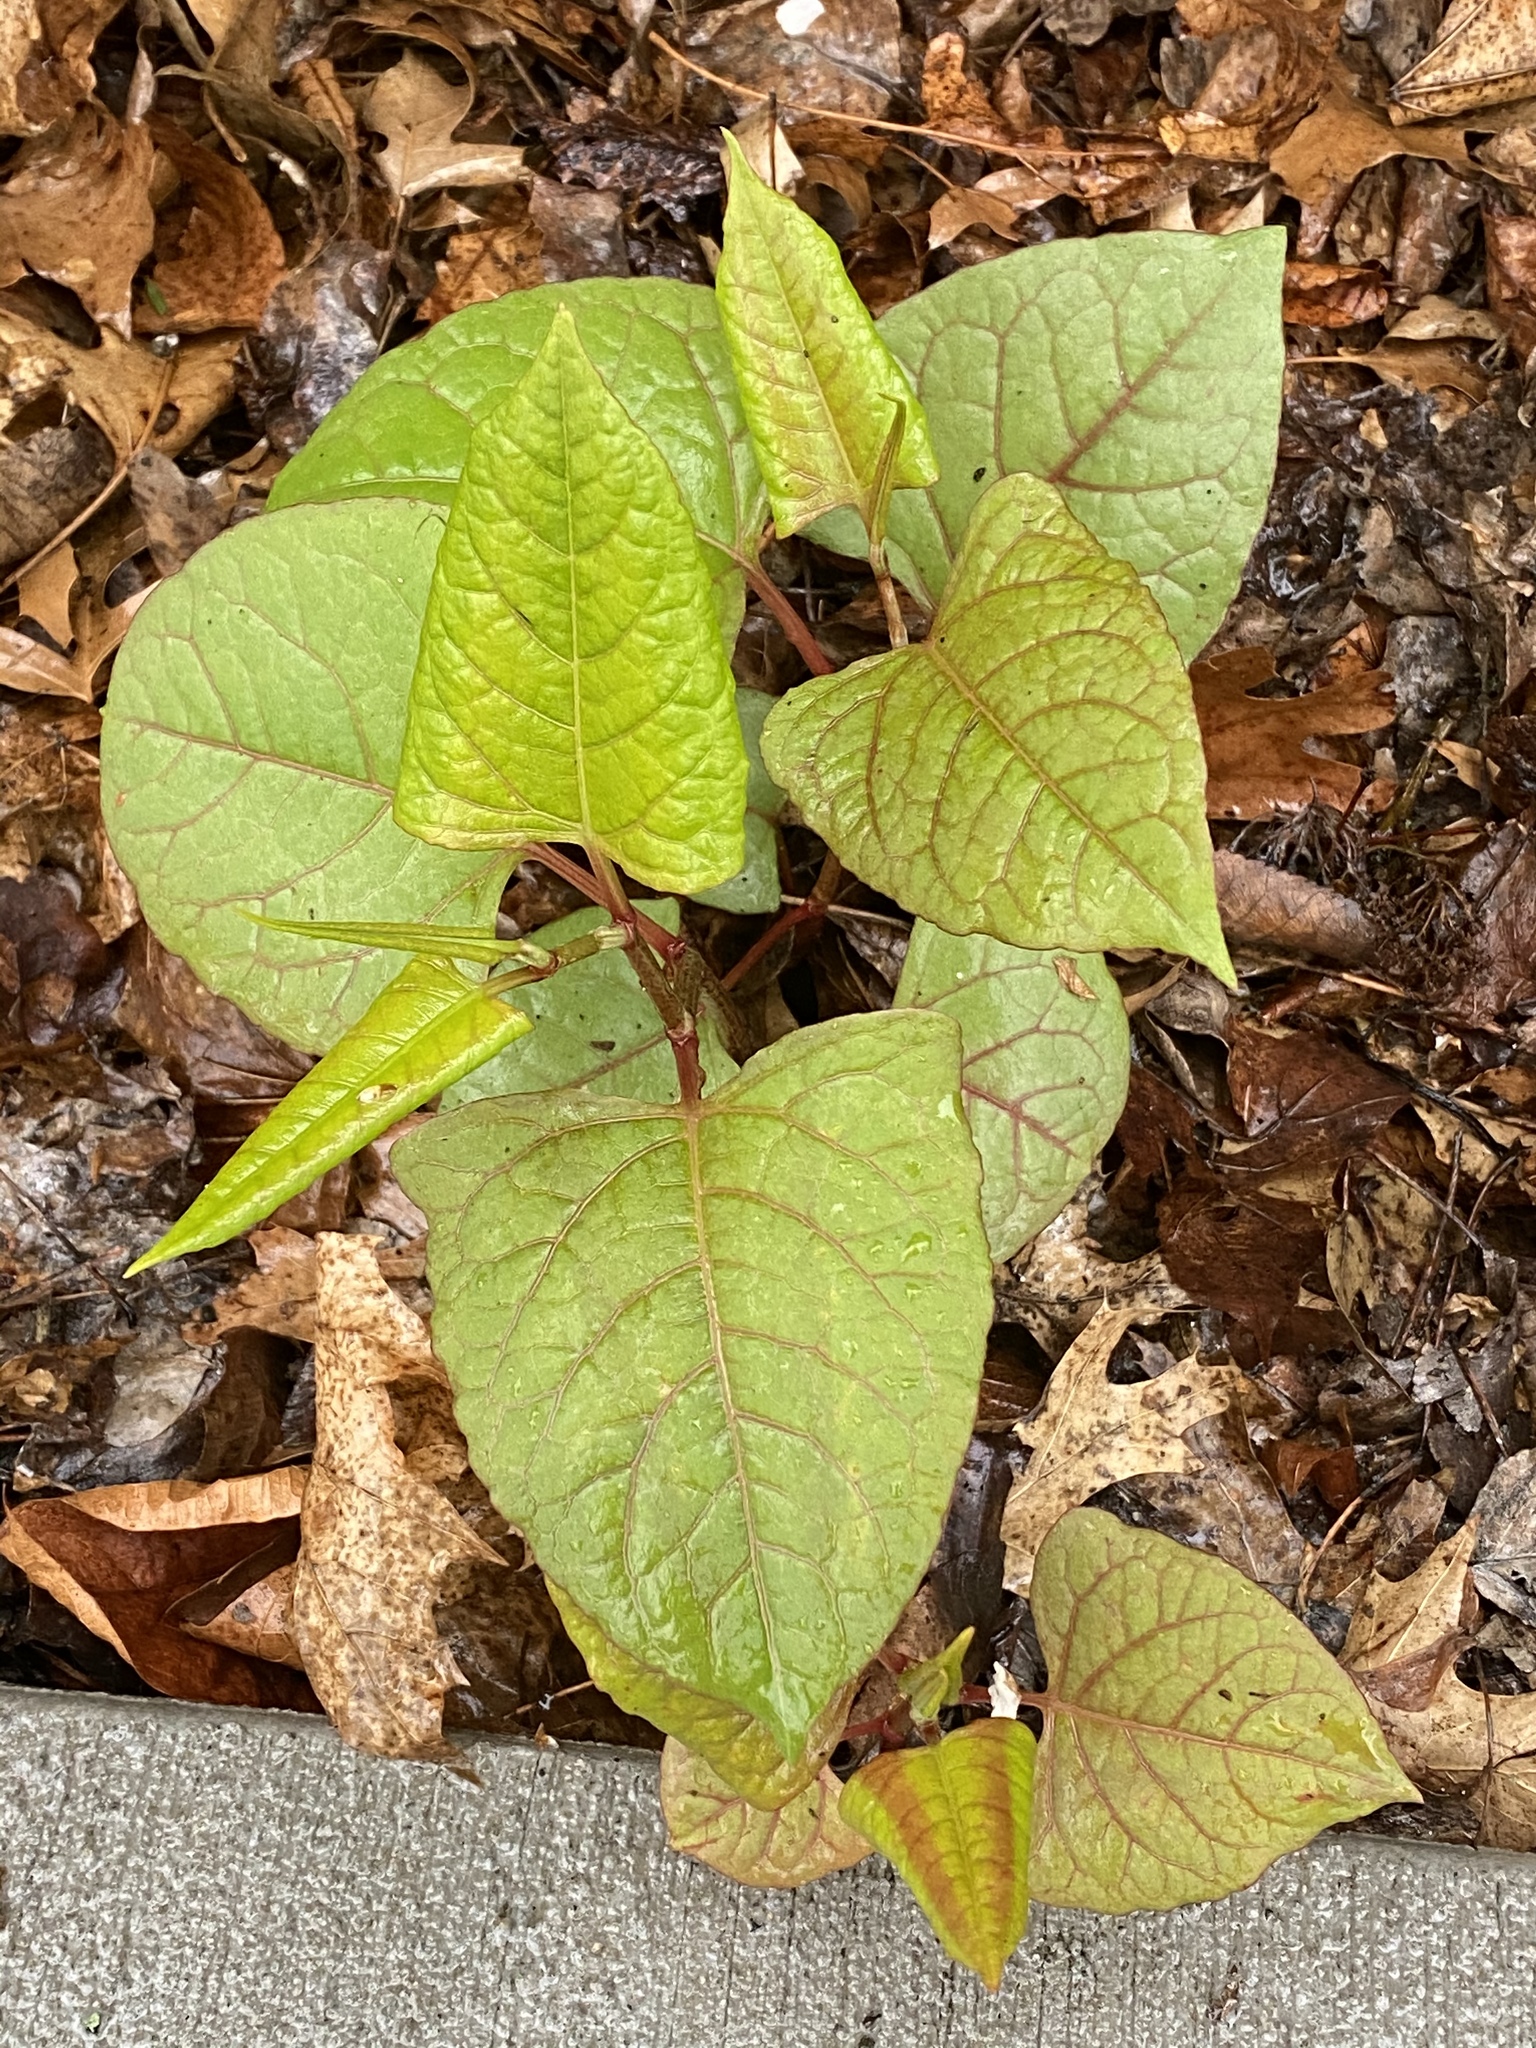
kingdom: Plantae
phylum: Tracheophyta
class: Magnoliopsida
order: Caryophyllales
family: Polygonaceae
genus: Reynoutria
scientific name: Reynoutria japonica
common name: Japanese knotweed
